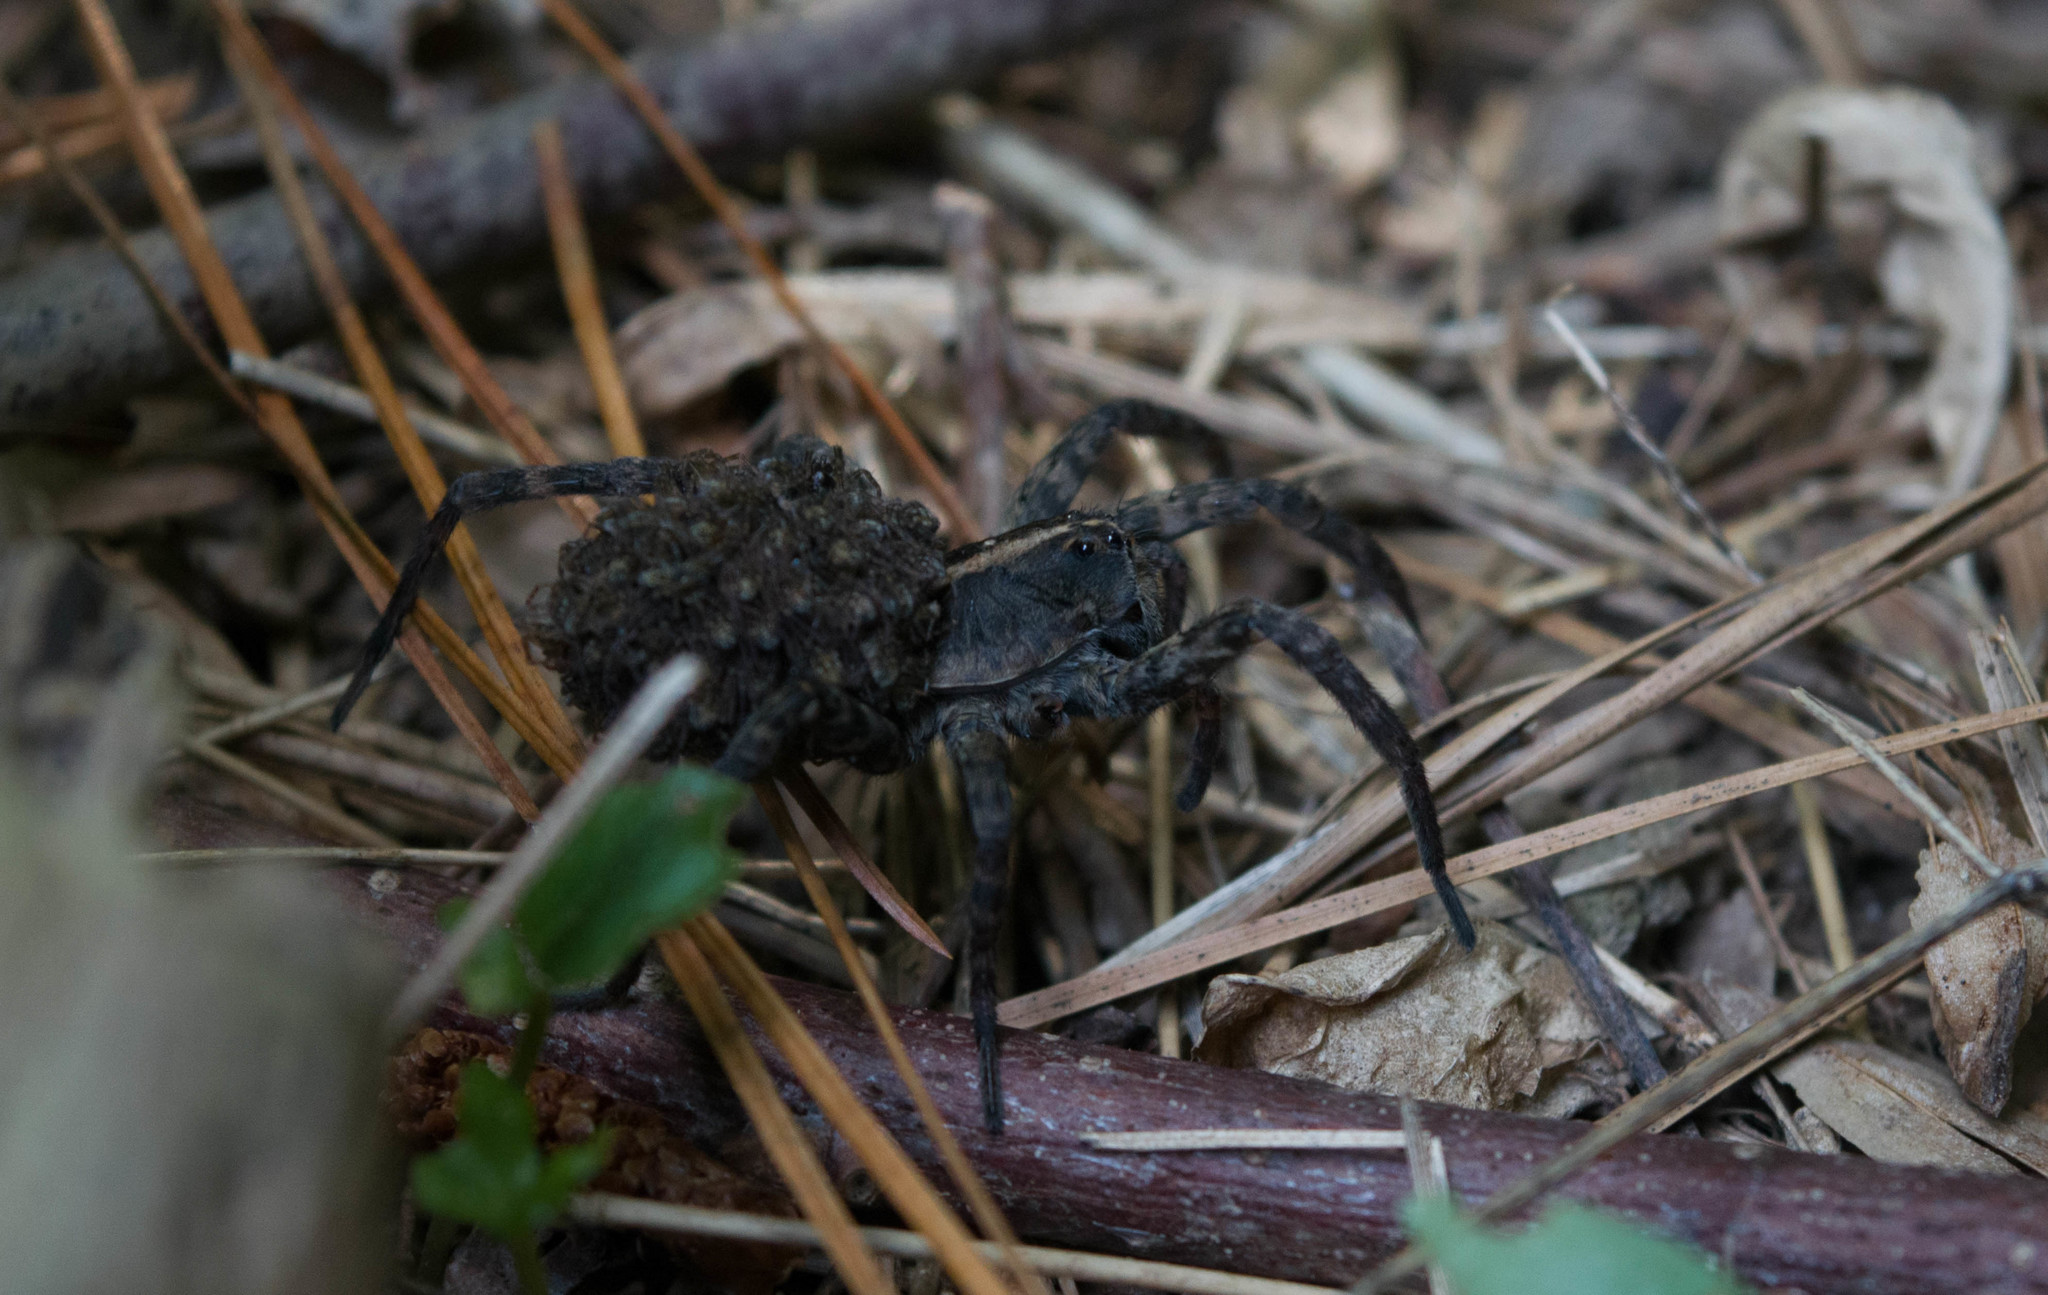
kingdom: Animalia
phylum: Arthropoda
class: Arachnida
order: Araneae
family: Lycosidae
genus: Tigrosa
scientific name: Tigrosa georgicola
